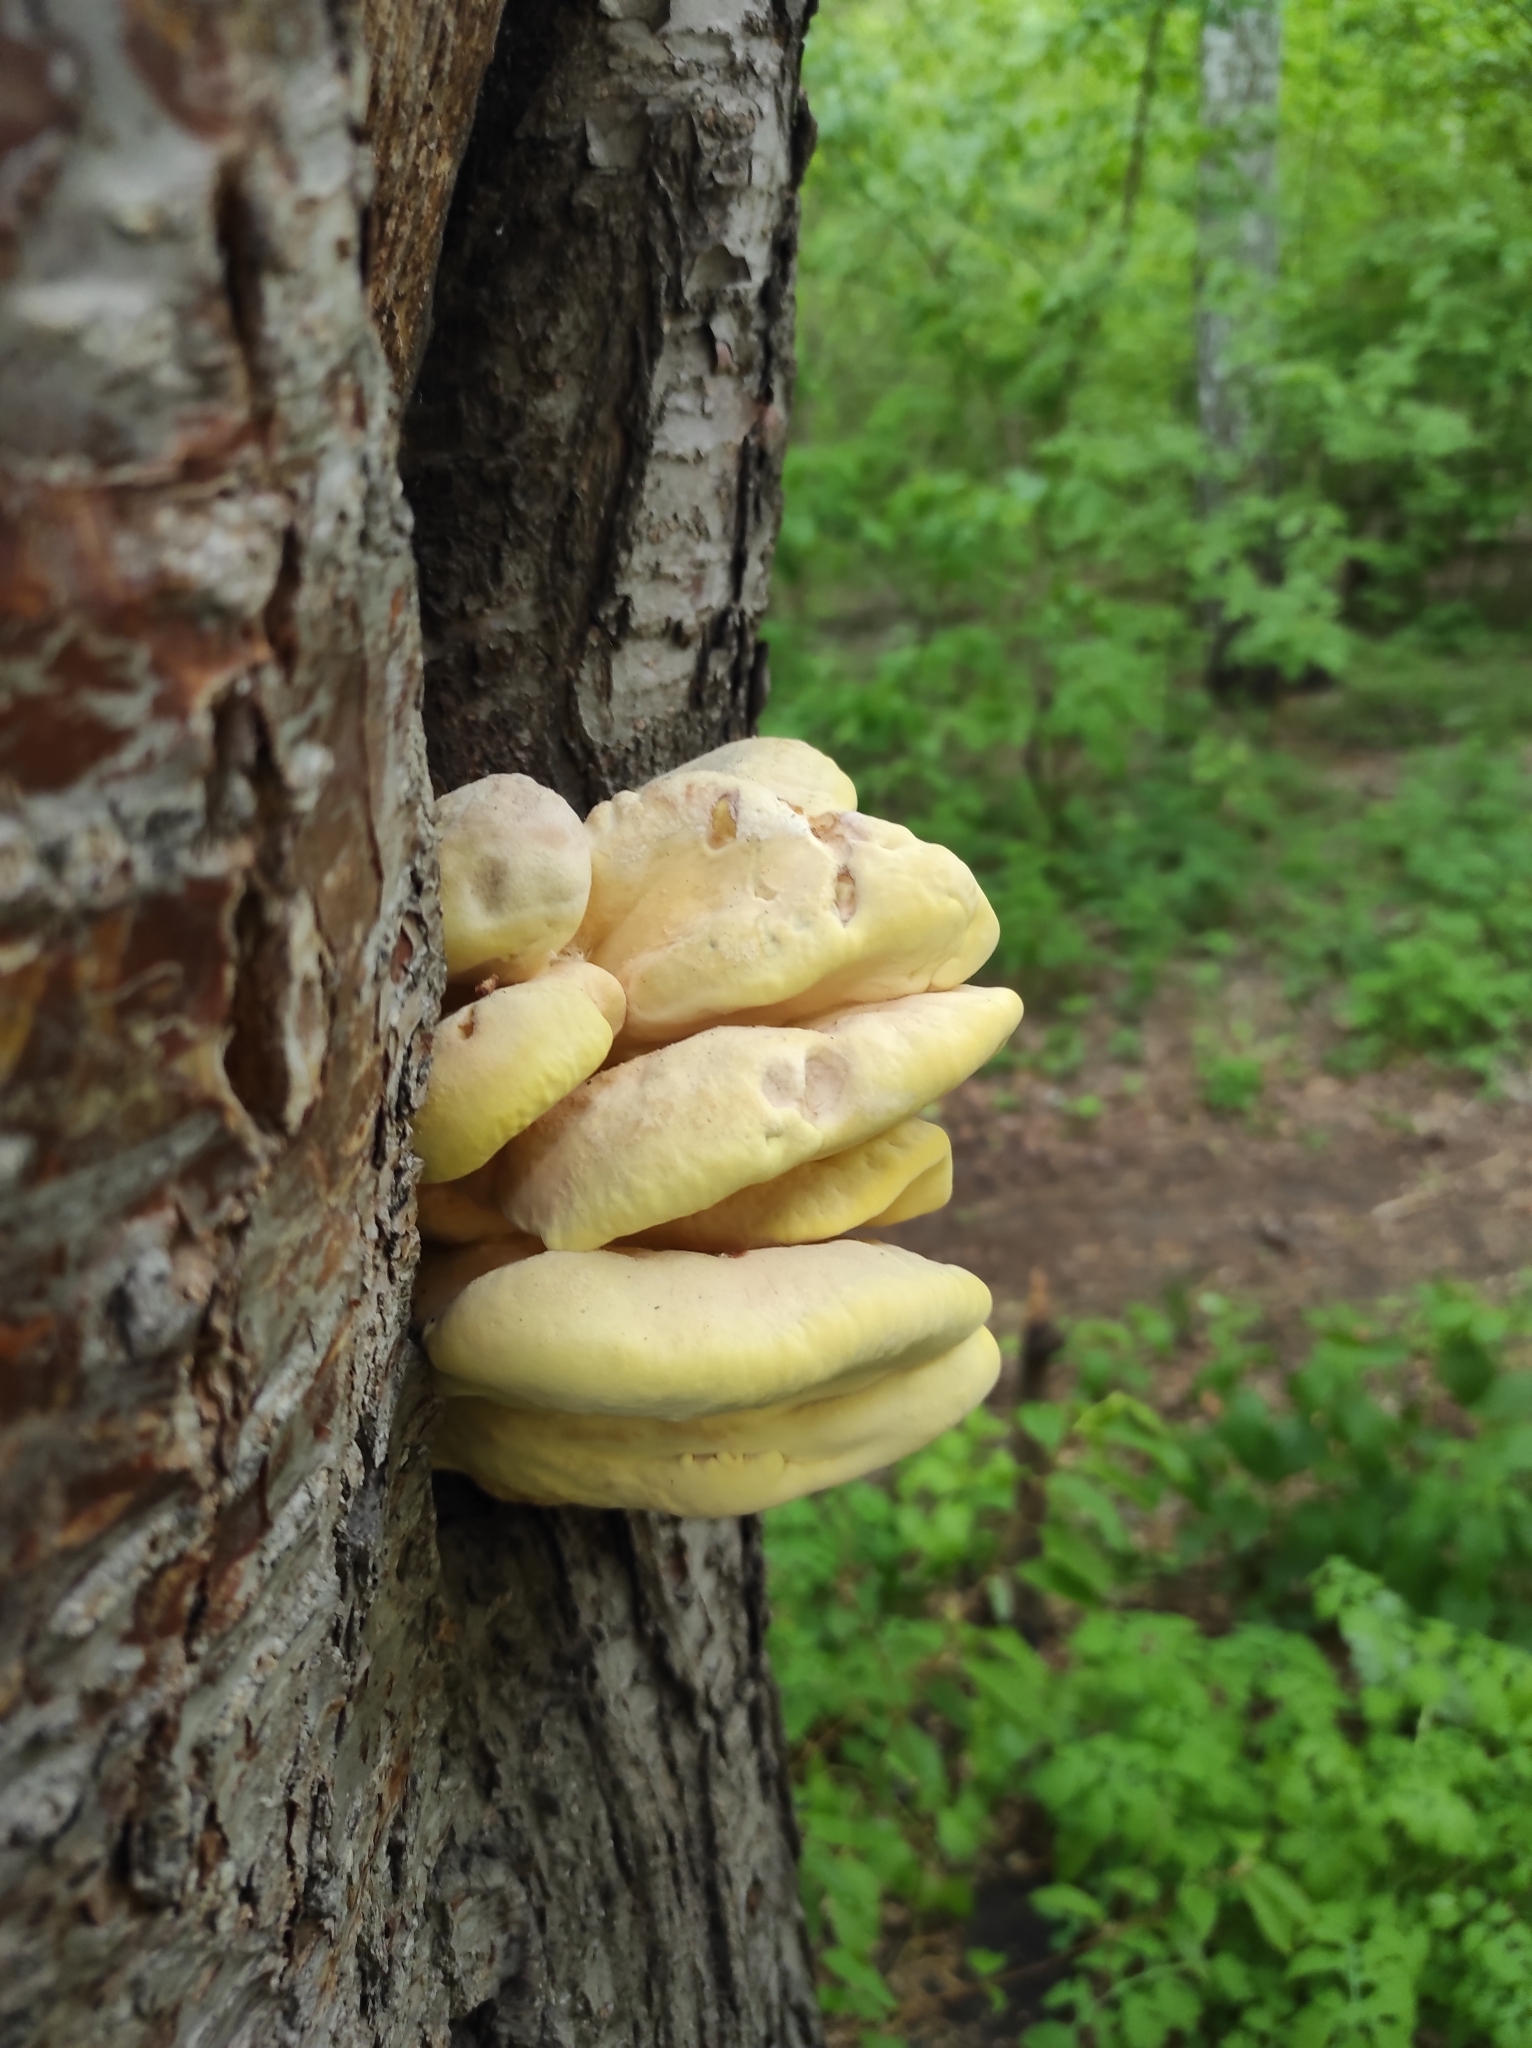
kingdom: Fungi
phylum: Basidiomycota
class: Agaricomycetes
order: Polyporales
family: Laetiporaceae
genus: Laetiporus
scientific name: Laetiporus sulphureus
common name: Chicken of the woods
